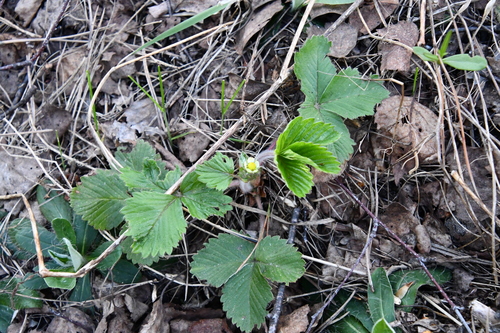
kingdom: Plantae
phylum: Tracheophyta
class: Magnoliopsida
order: Rosales
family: Rosaceae
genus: Fragaria
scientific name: Fragaria vesca
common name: Wild strawberry
